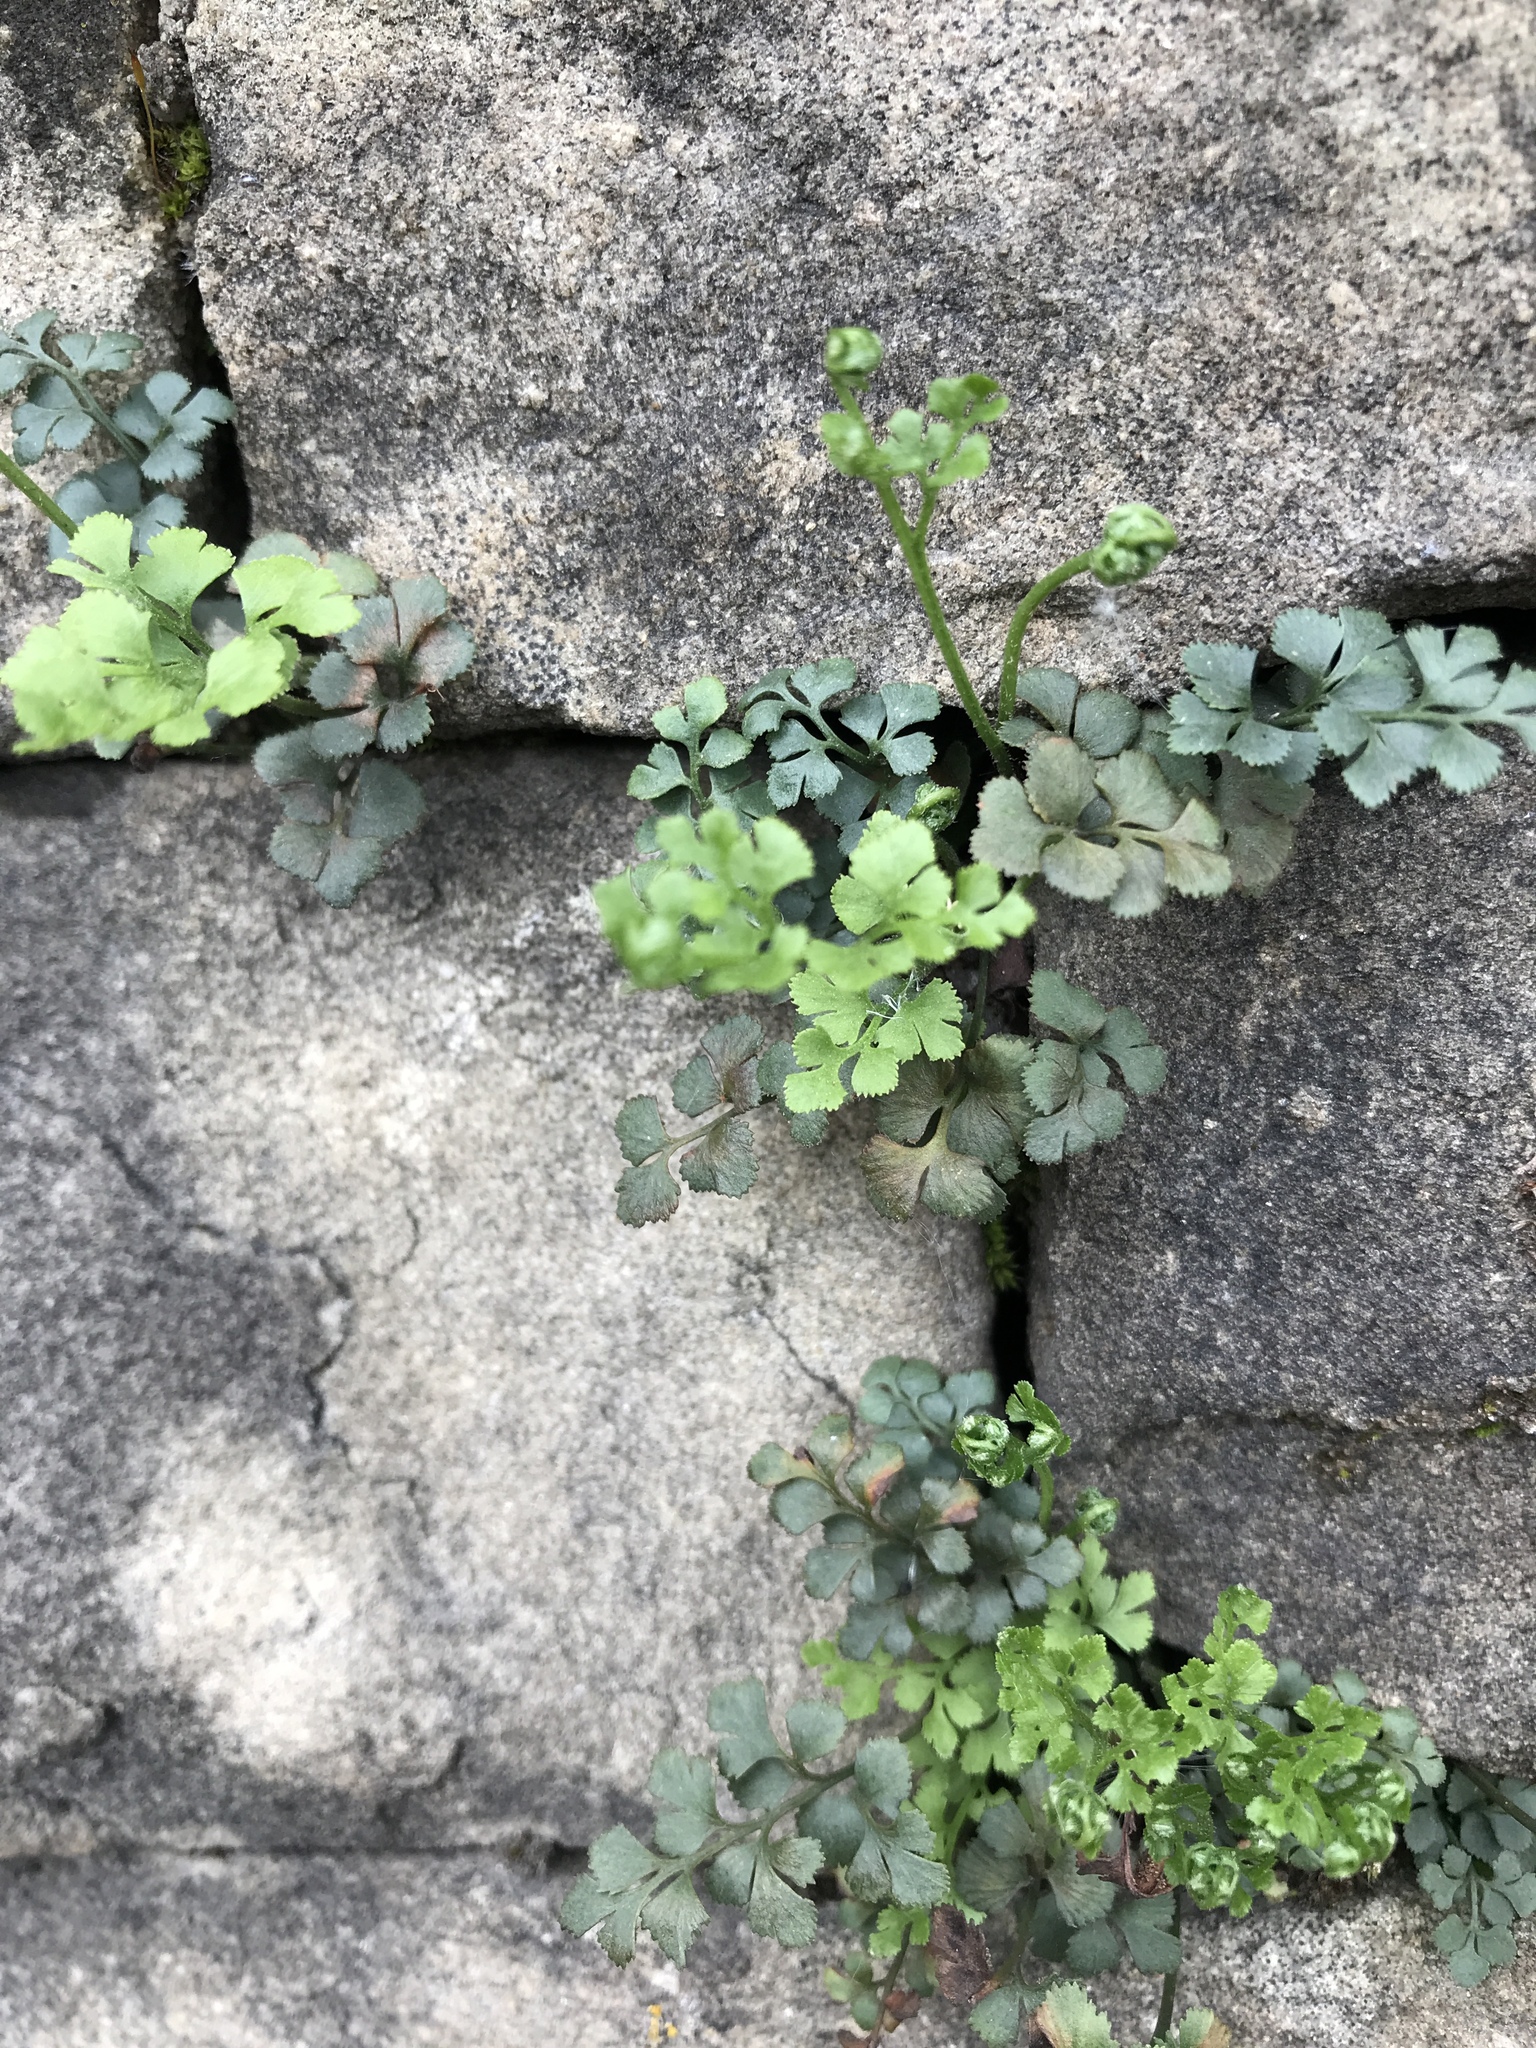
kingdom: Plantae
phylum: Tracheophyta
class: Polypodiopsida
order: Polypodiales
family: Aspleniaceae
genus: Asplenium
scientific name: Asplenium ruta-muraria
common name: Wall-rue
